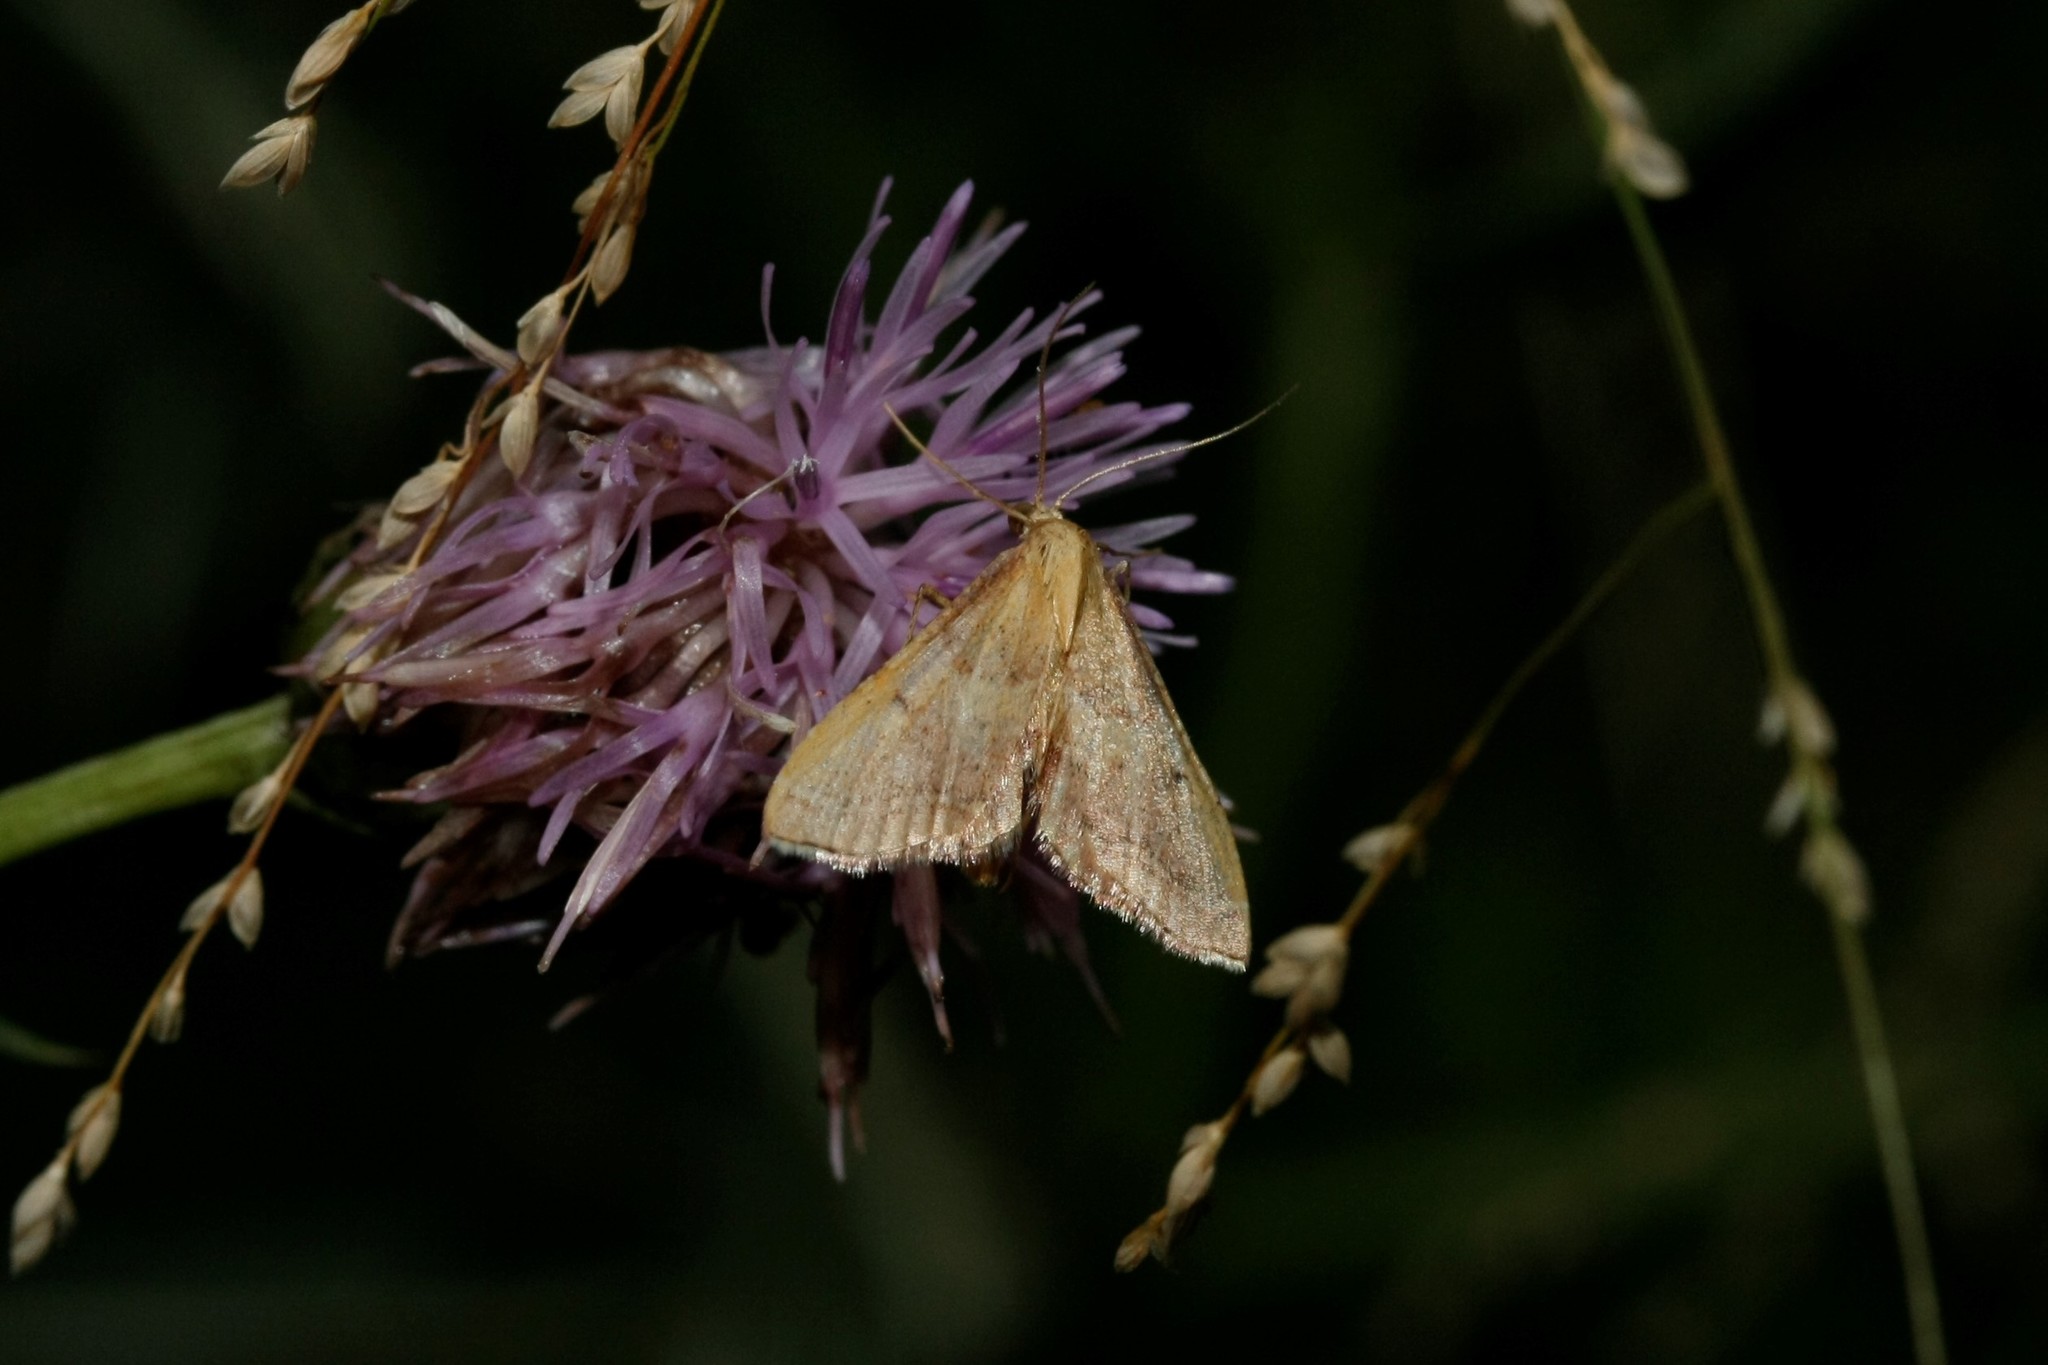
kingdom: Animalia
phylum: Arthropoda
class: Insecta
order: Lepidoptera
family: Pyralidae
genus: Endotricha
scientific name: Endotricha flammealis
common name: Rosy tabby
